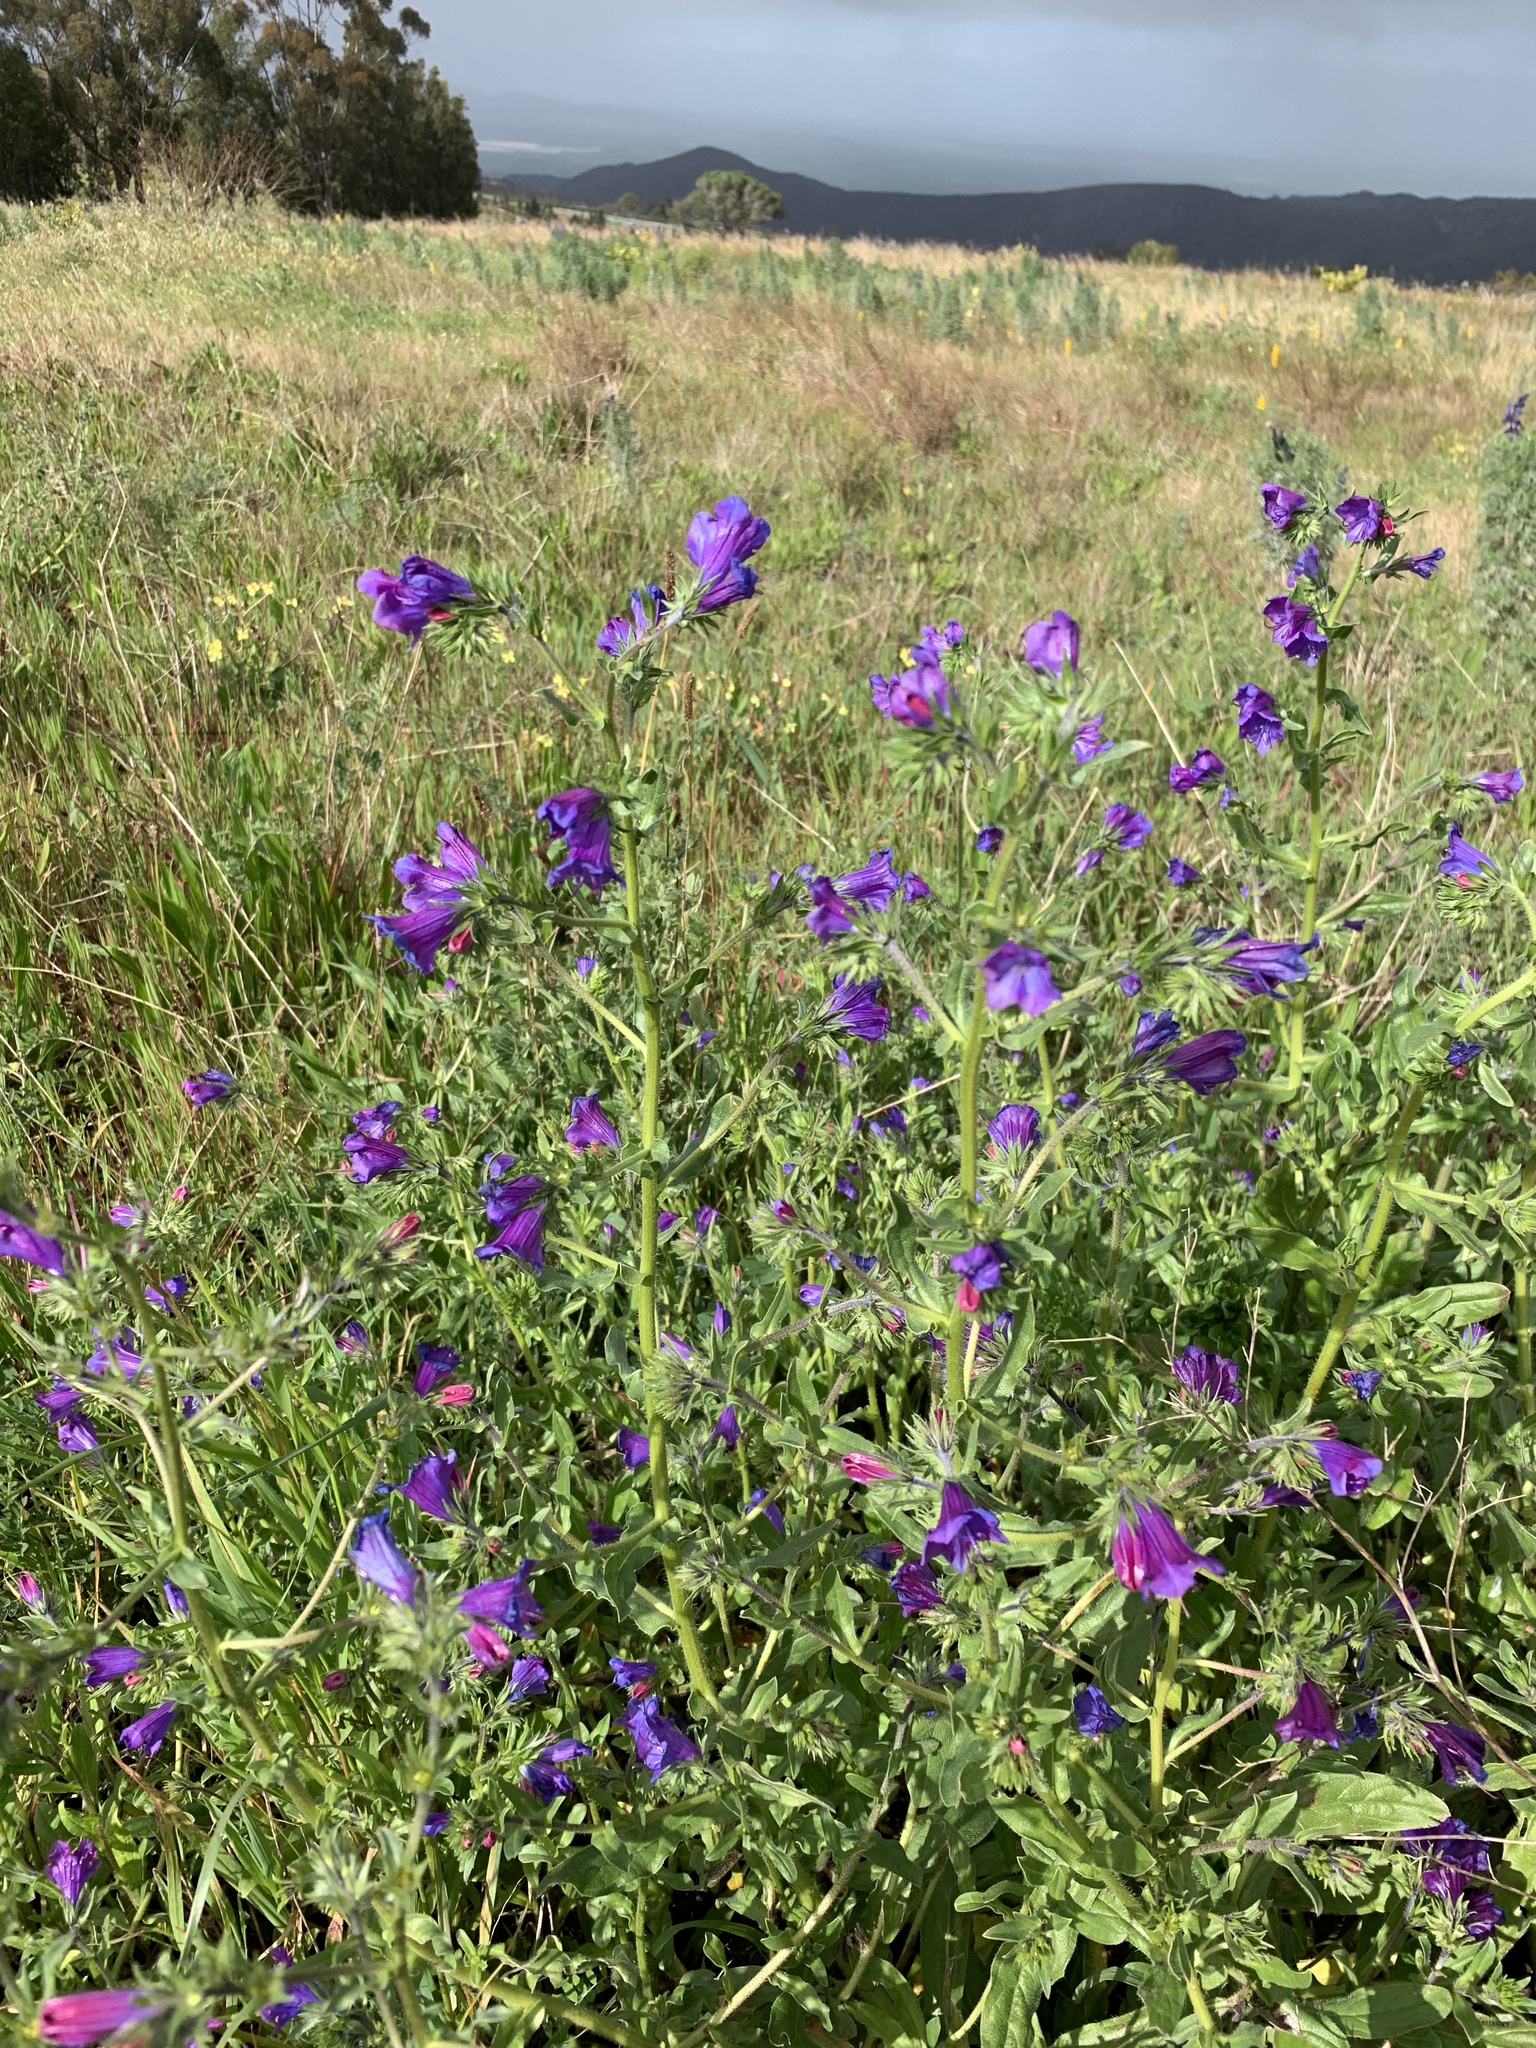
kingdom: Plantae
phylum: Tracheophyta
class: Magnoliopsida
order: Boraginales
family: Boraginaceae
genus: Echium
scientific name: Echium plantagineum
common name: Purple viper's-bugloss
